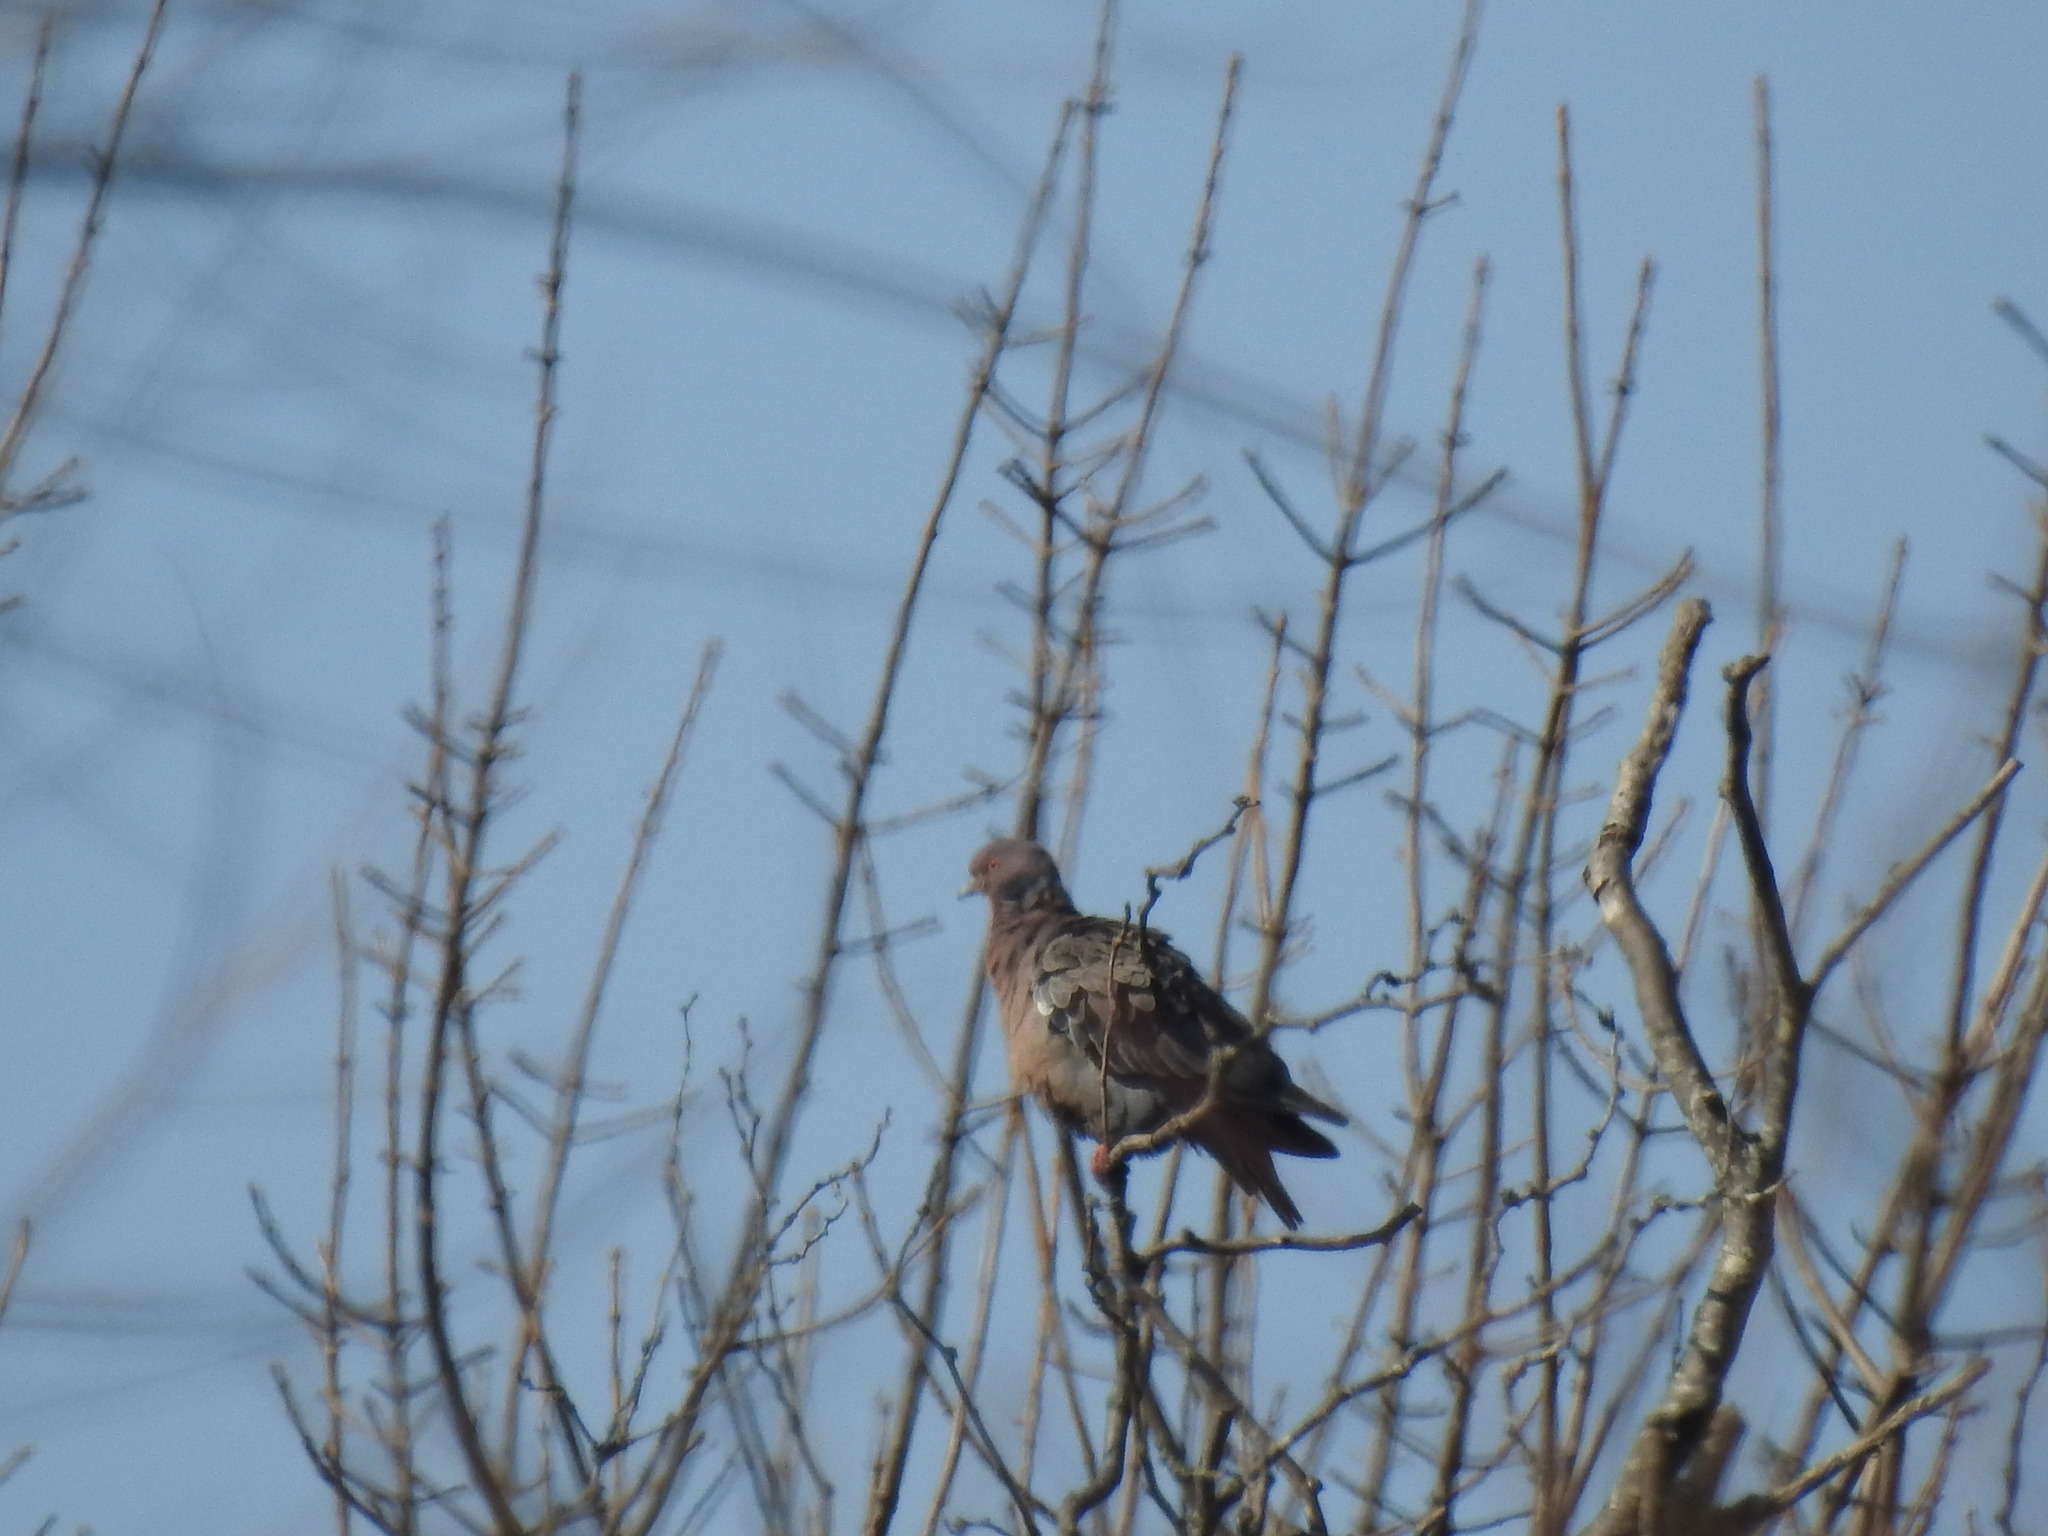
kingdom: Animalia
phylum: Chordata
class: Aves
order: Columbiformes
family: Columbidae
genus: Patagioenas
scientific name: Patagioenas picazuro
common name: Picazuro pigeon
